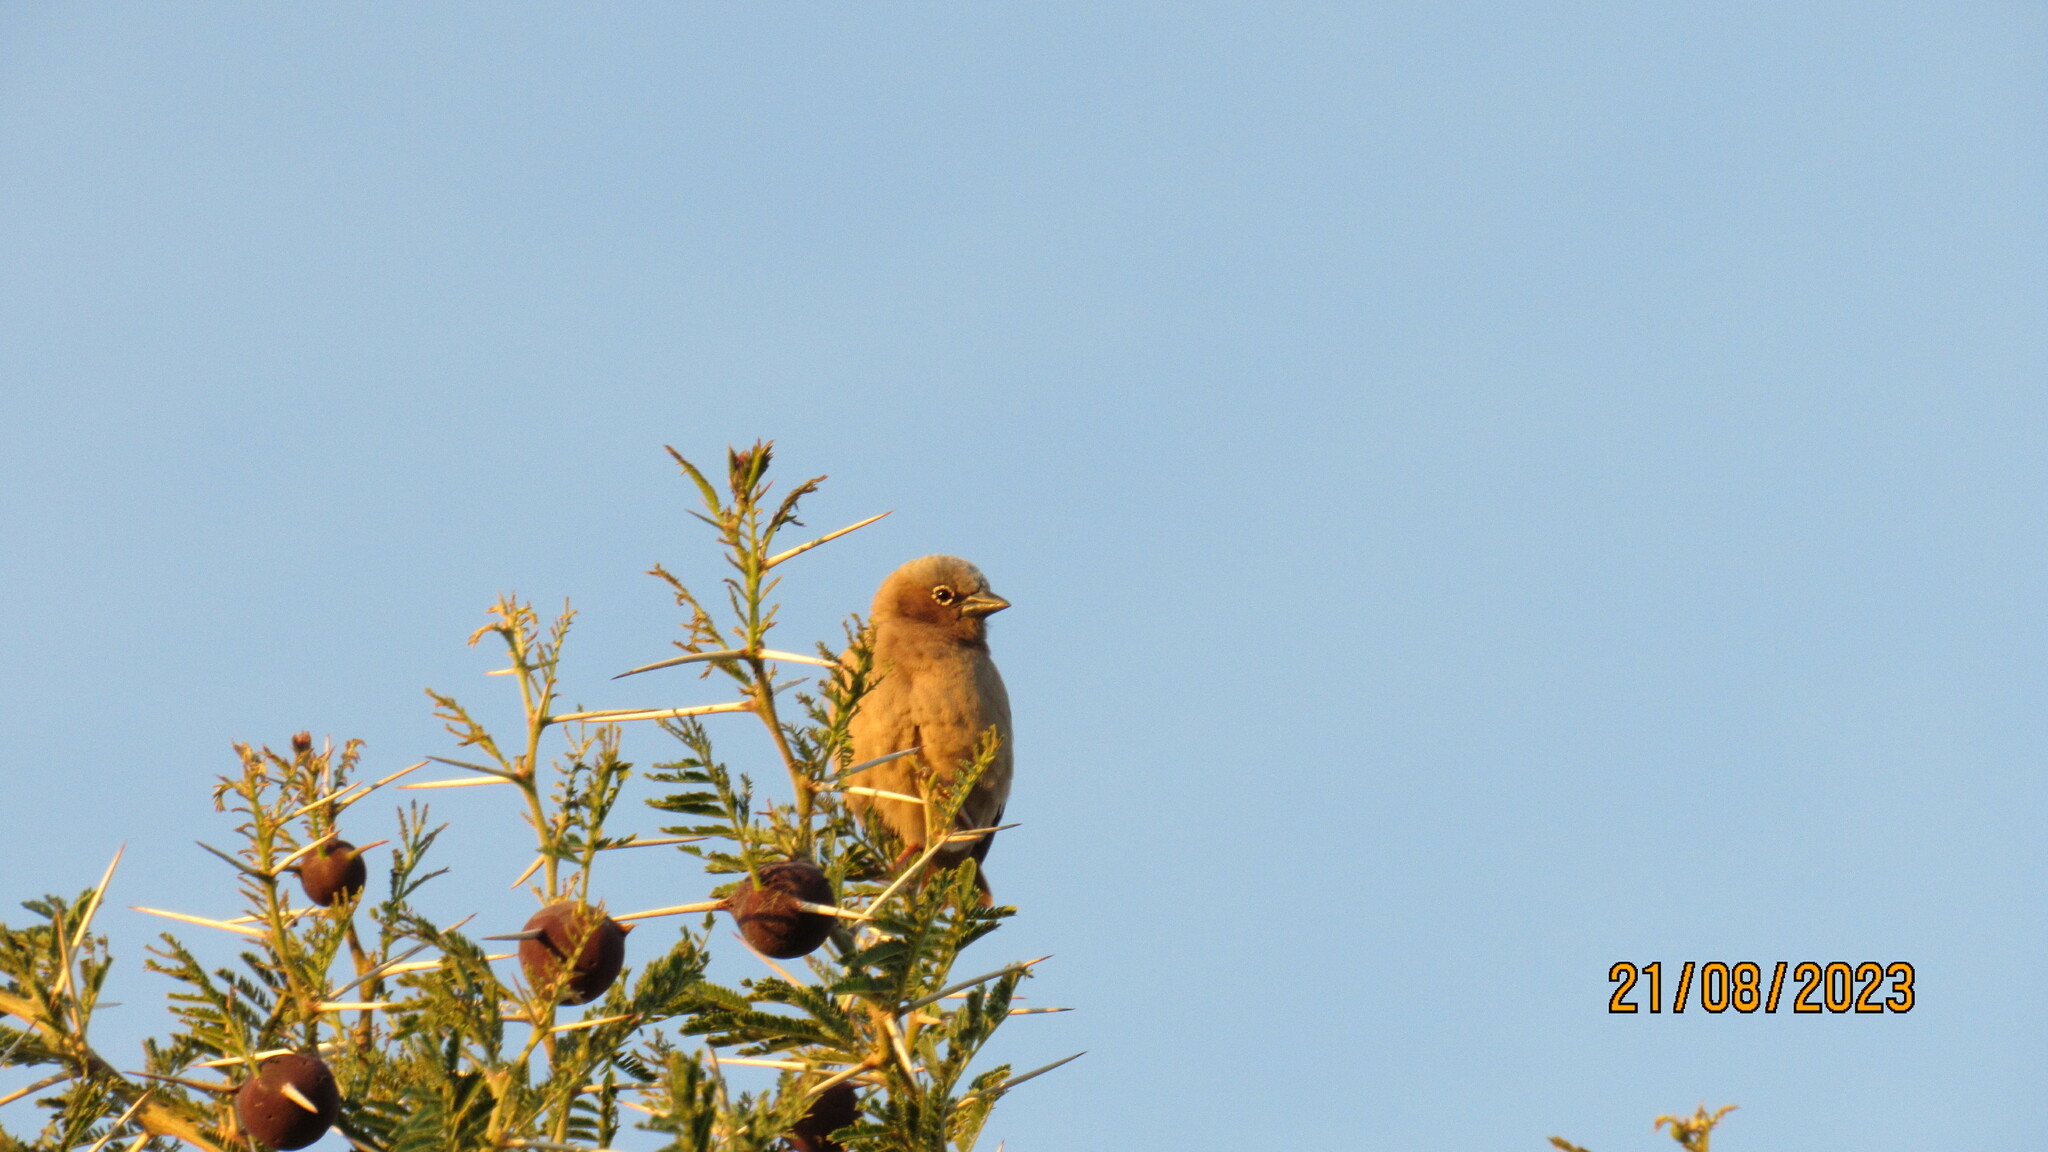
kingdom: Animalia
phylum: Chordata
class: Aves
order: Passeriformes
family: Passeridae
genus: Pseudonigrita
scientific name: Pseudonigrita arnaudi
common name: Grey-capped social weaver
